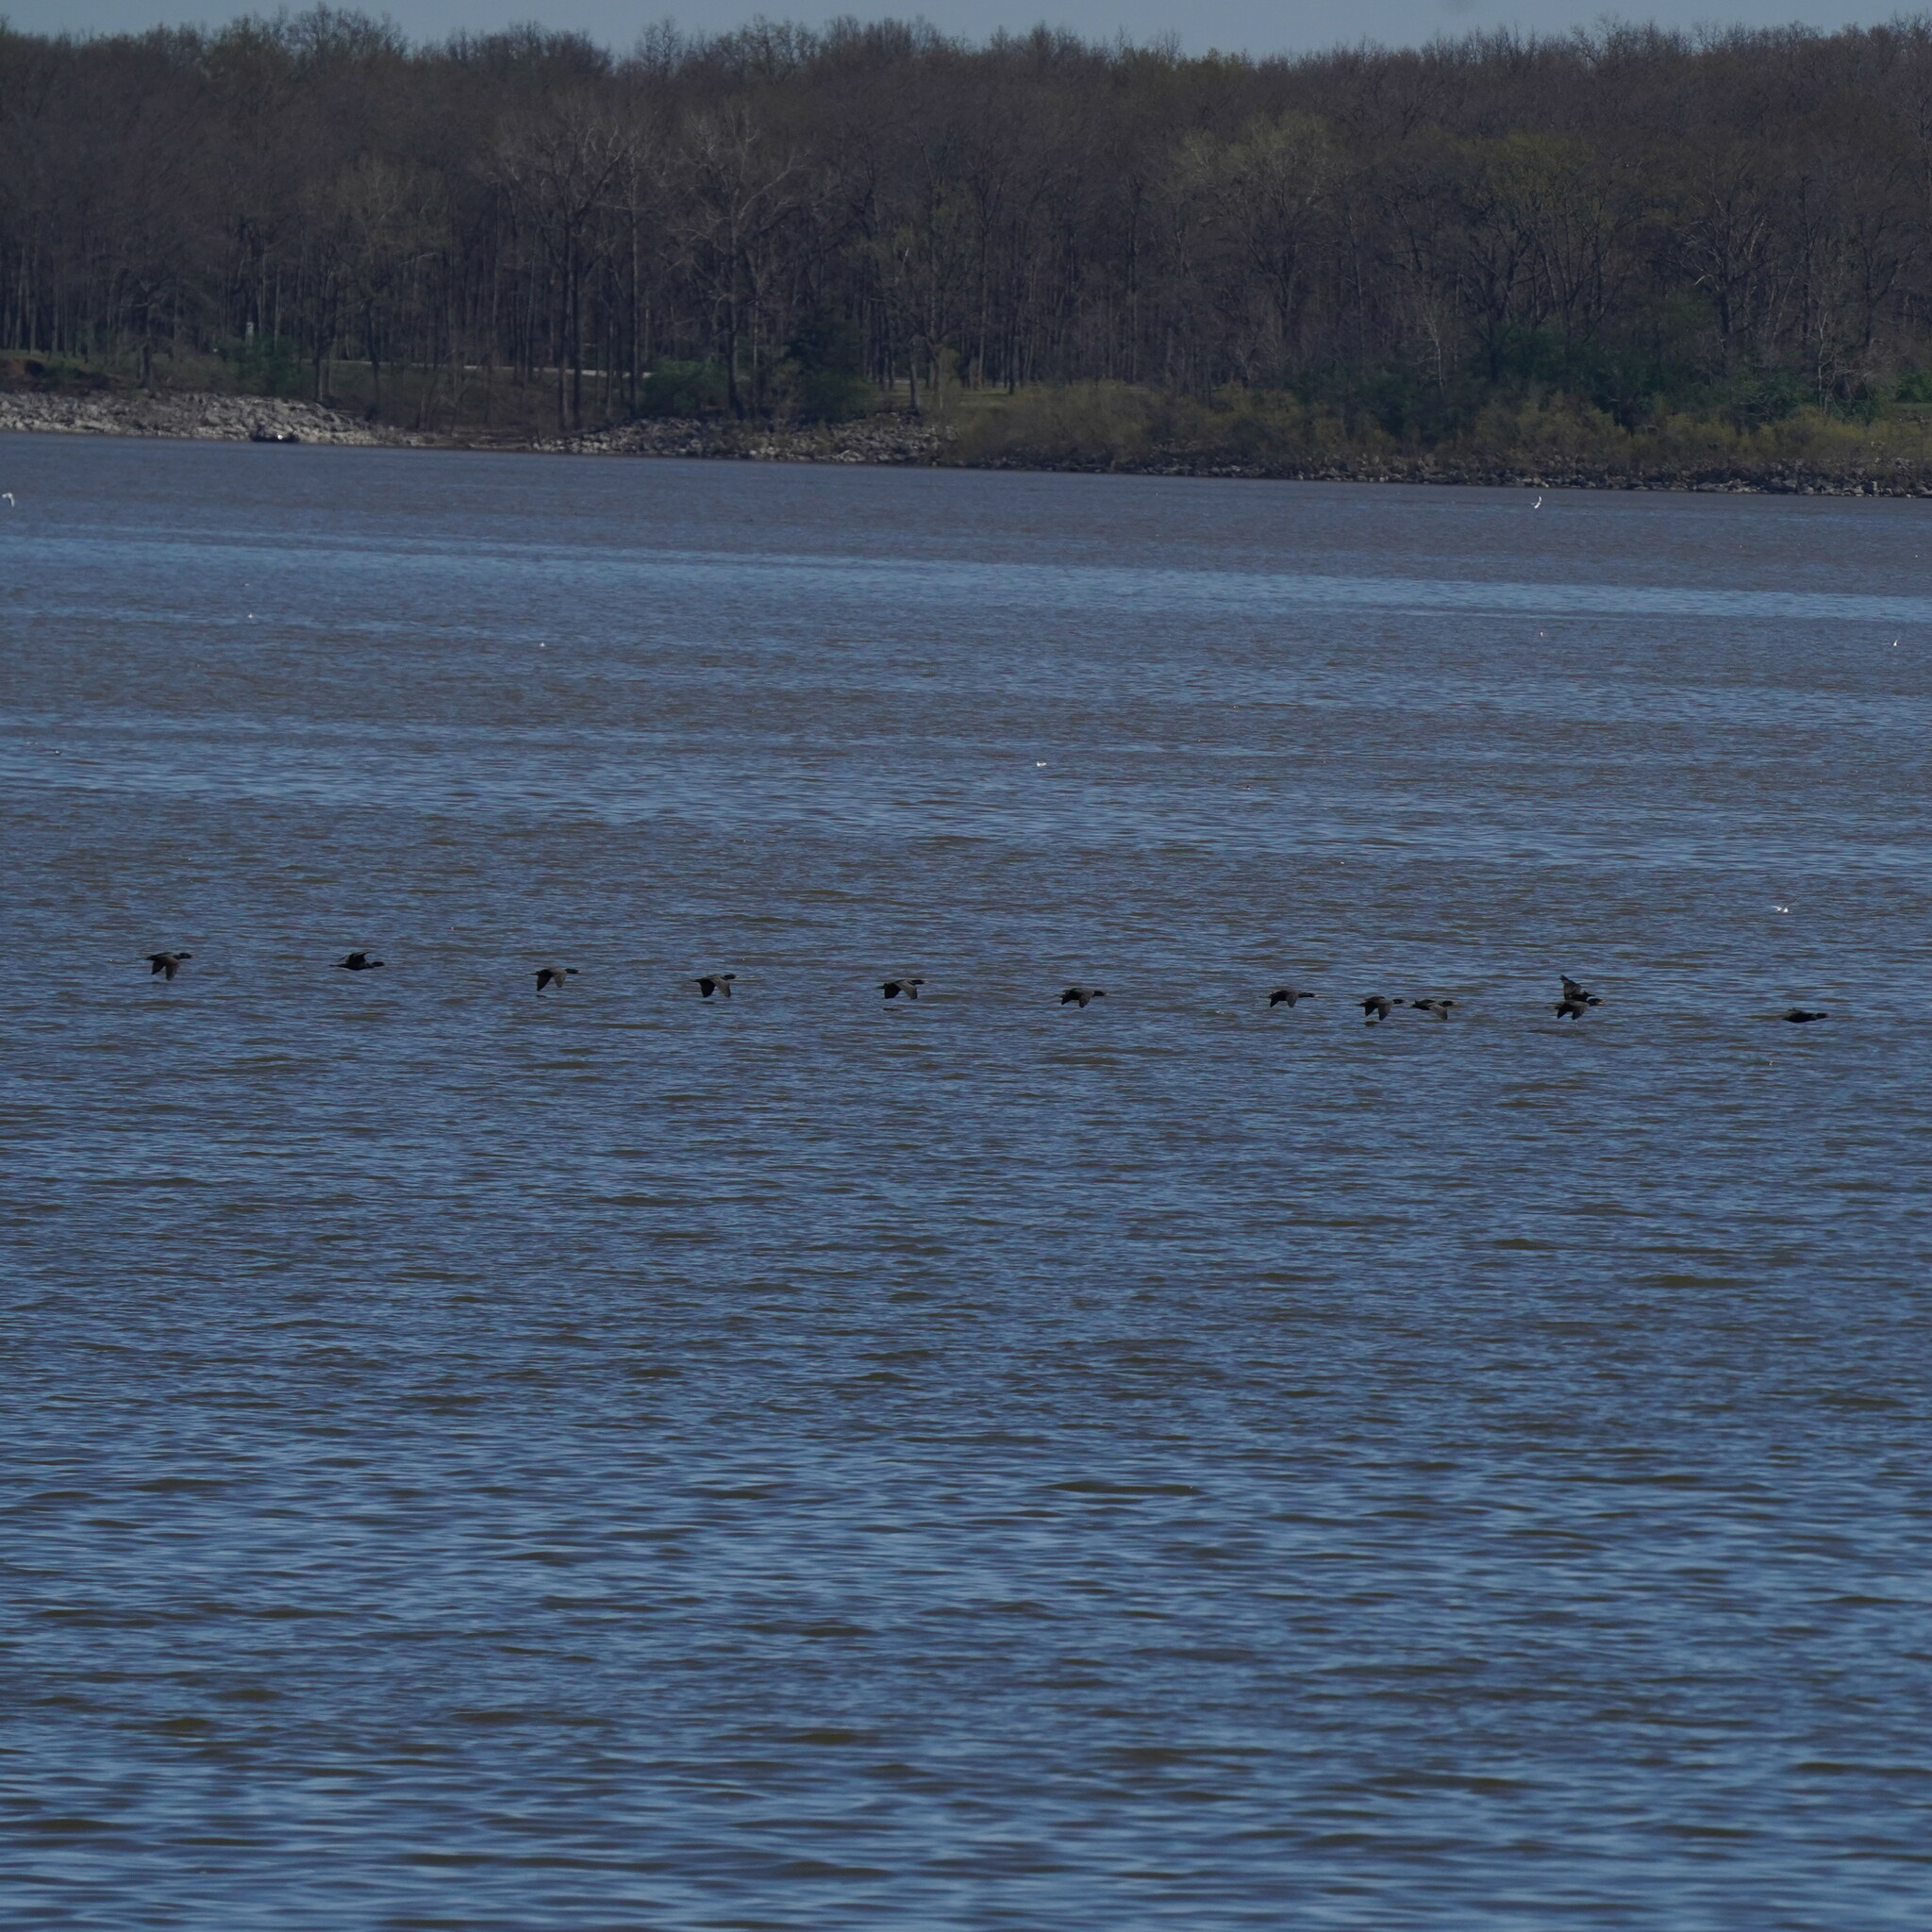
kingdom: Animalia
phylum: Chordata
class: Aves
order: Suliformes
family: Phalacrocoracidae
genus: Phalacrocorax
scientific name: Phalacrocorax auritus
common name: Double-crested cormorant
